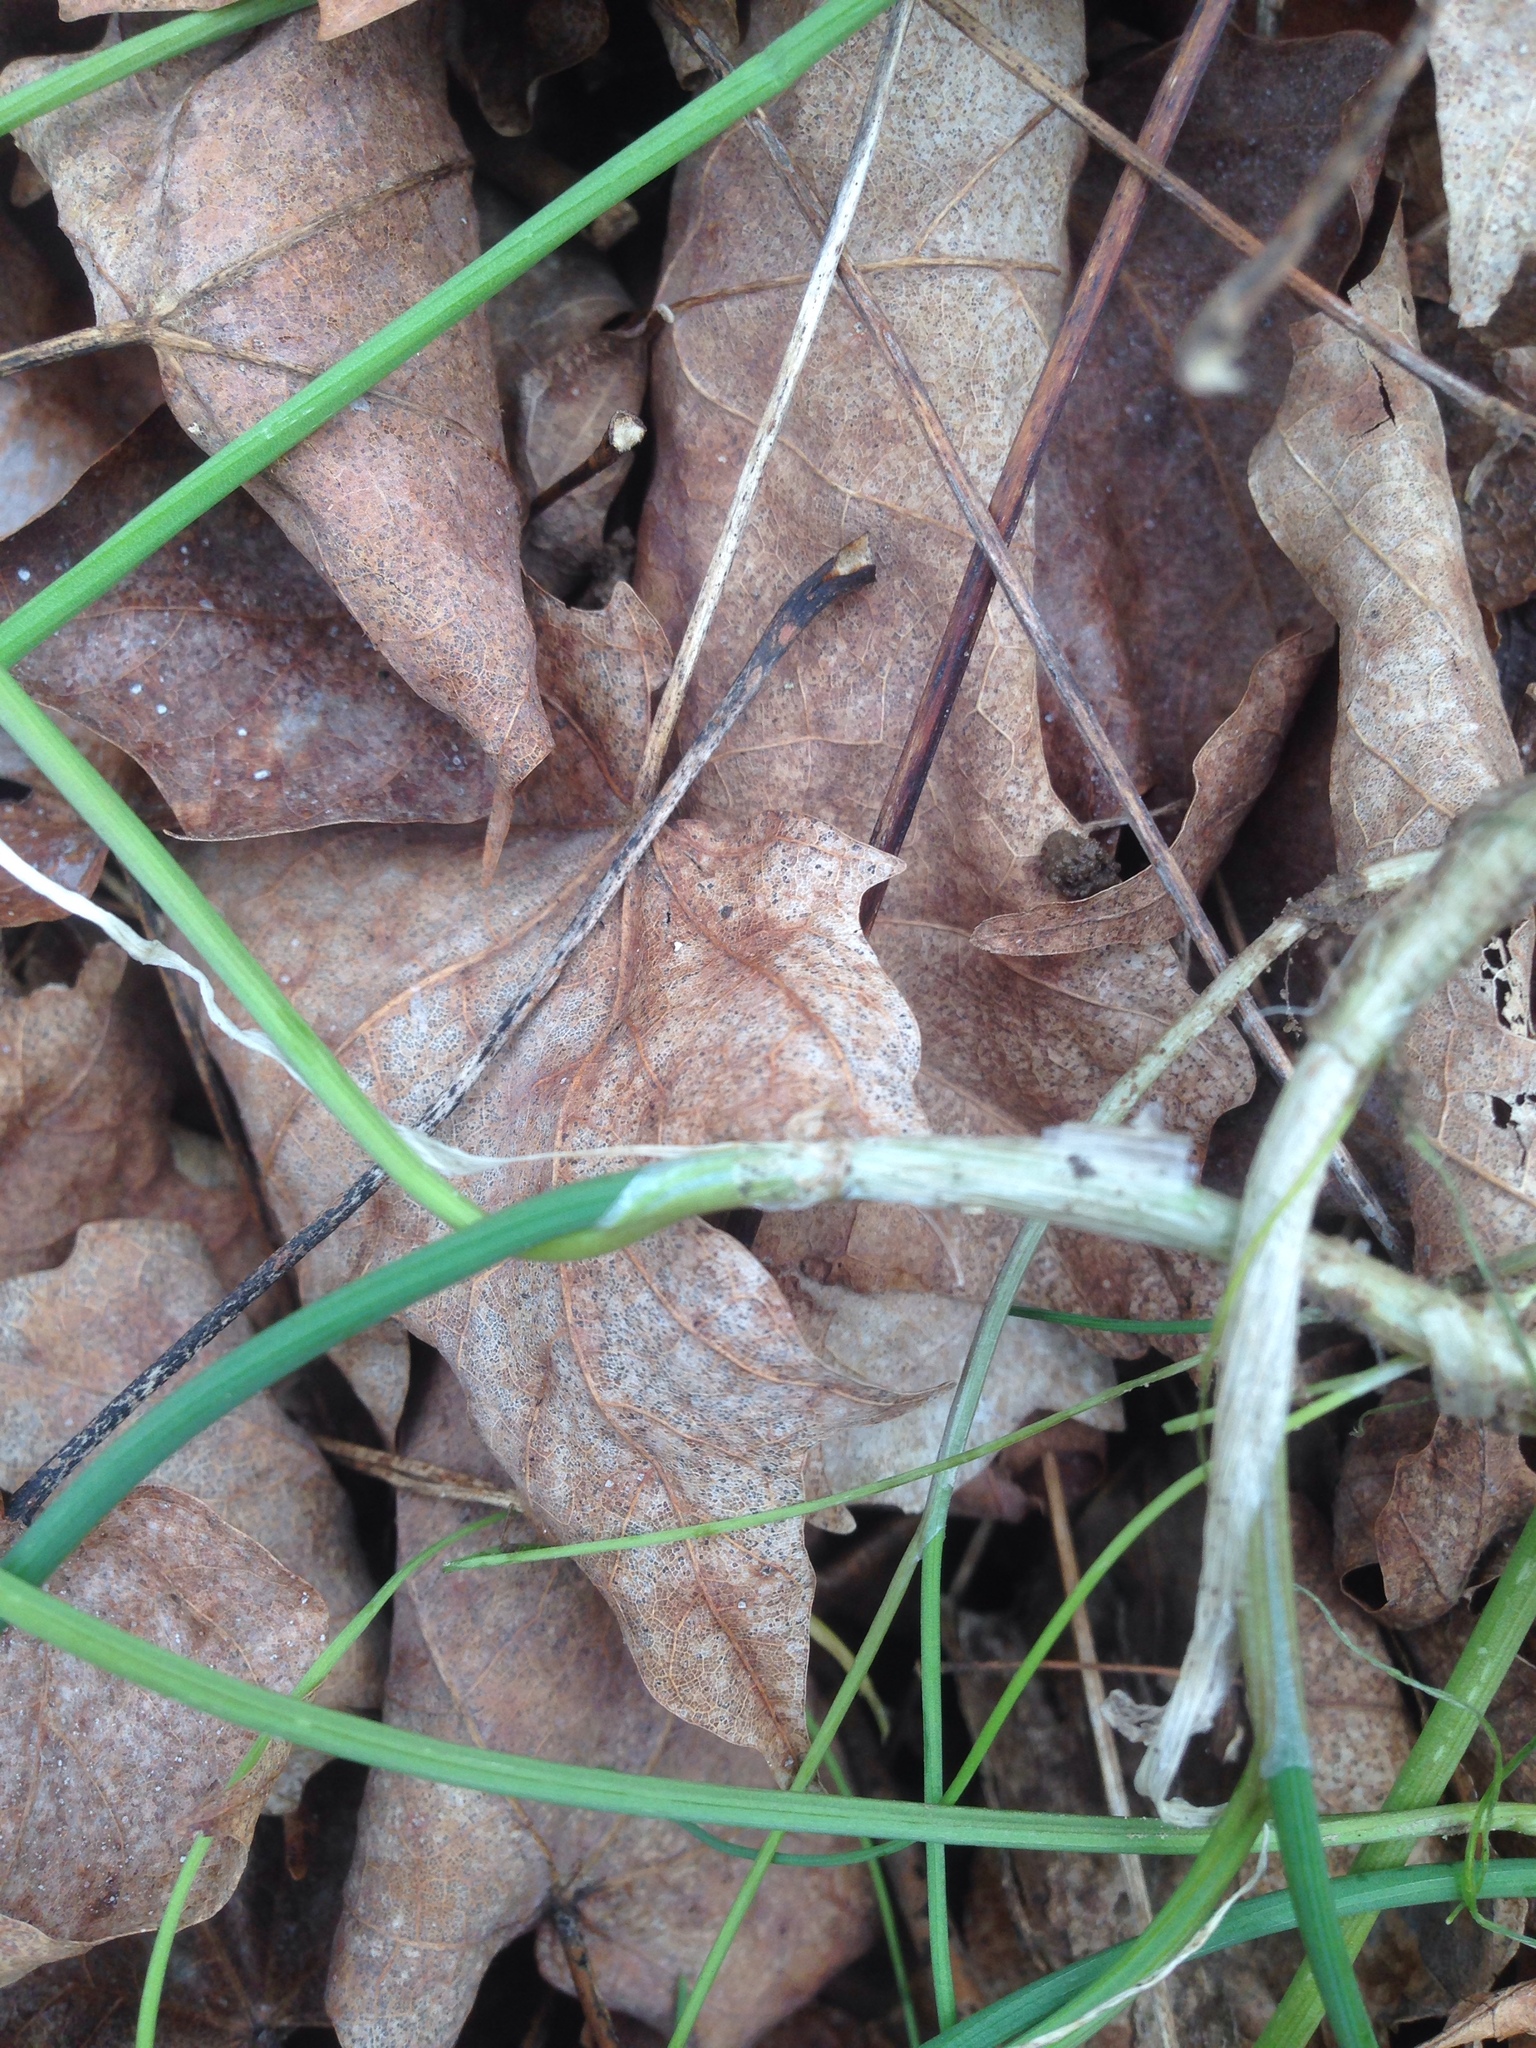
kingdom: Plantae
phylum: Tracheophyta
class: Liliopsida
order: Asparagales
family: Amaryllidaceae
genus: Allium
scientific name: Allium vineale
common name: Crow garlic
